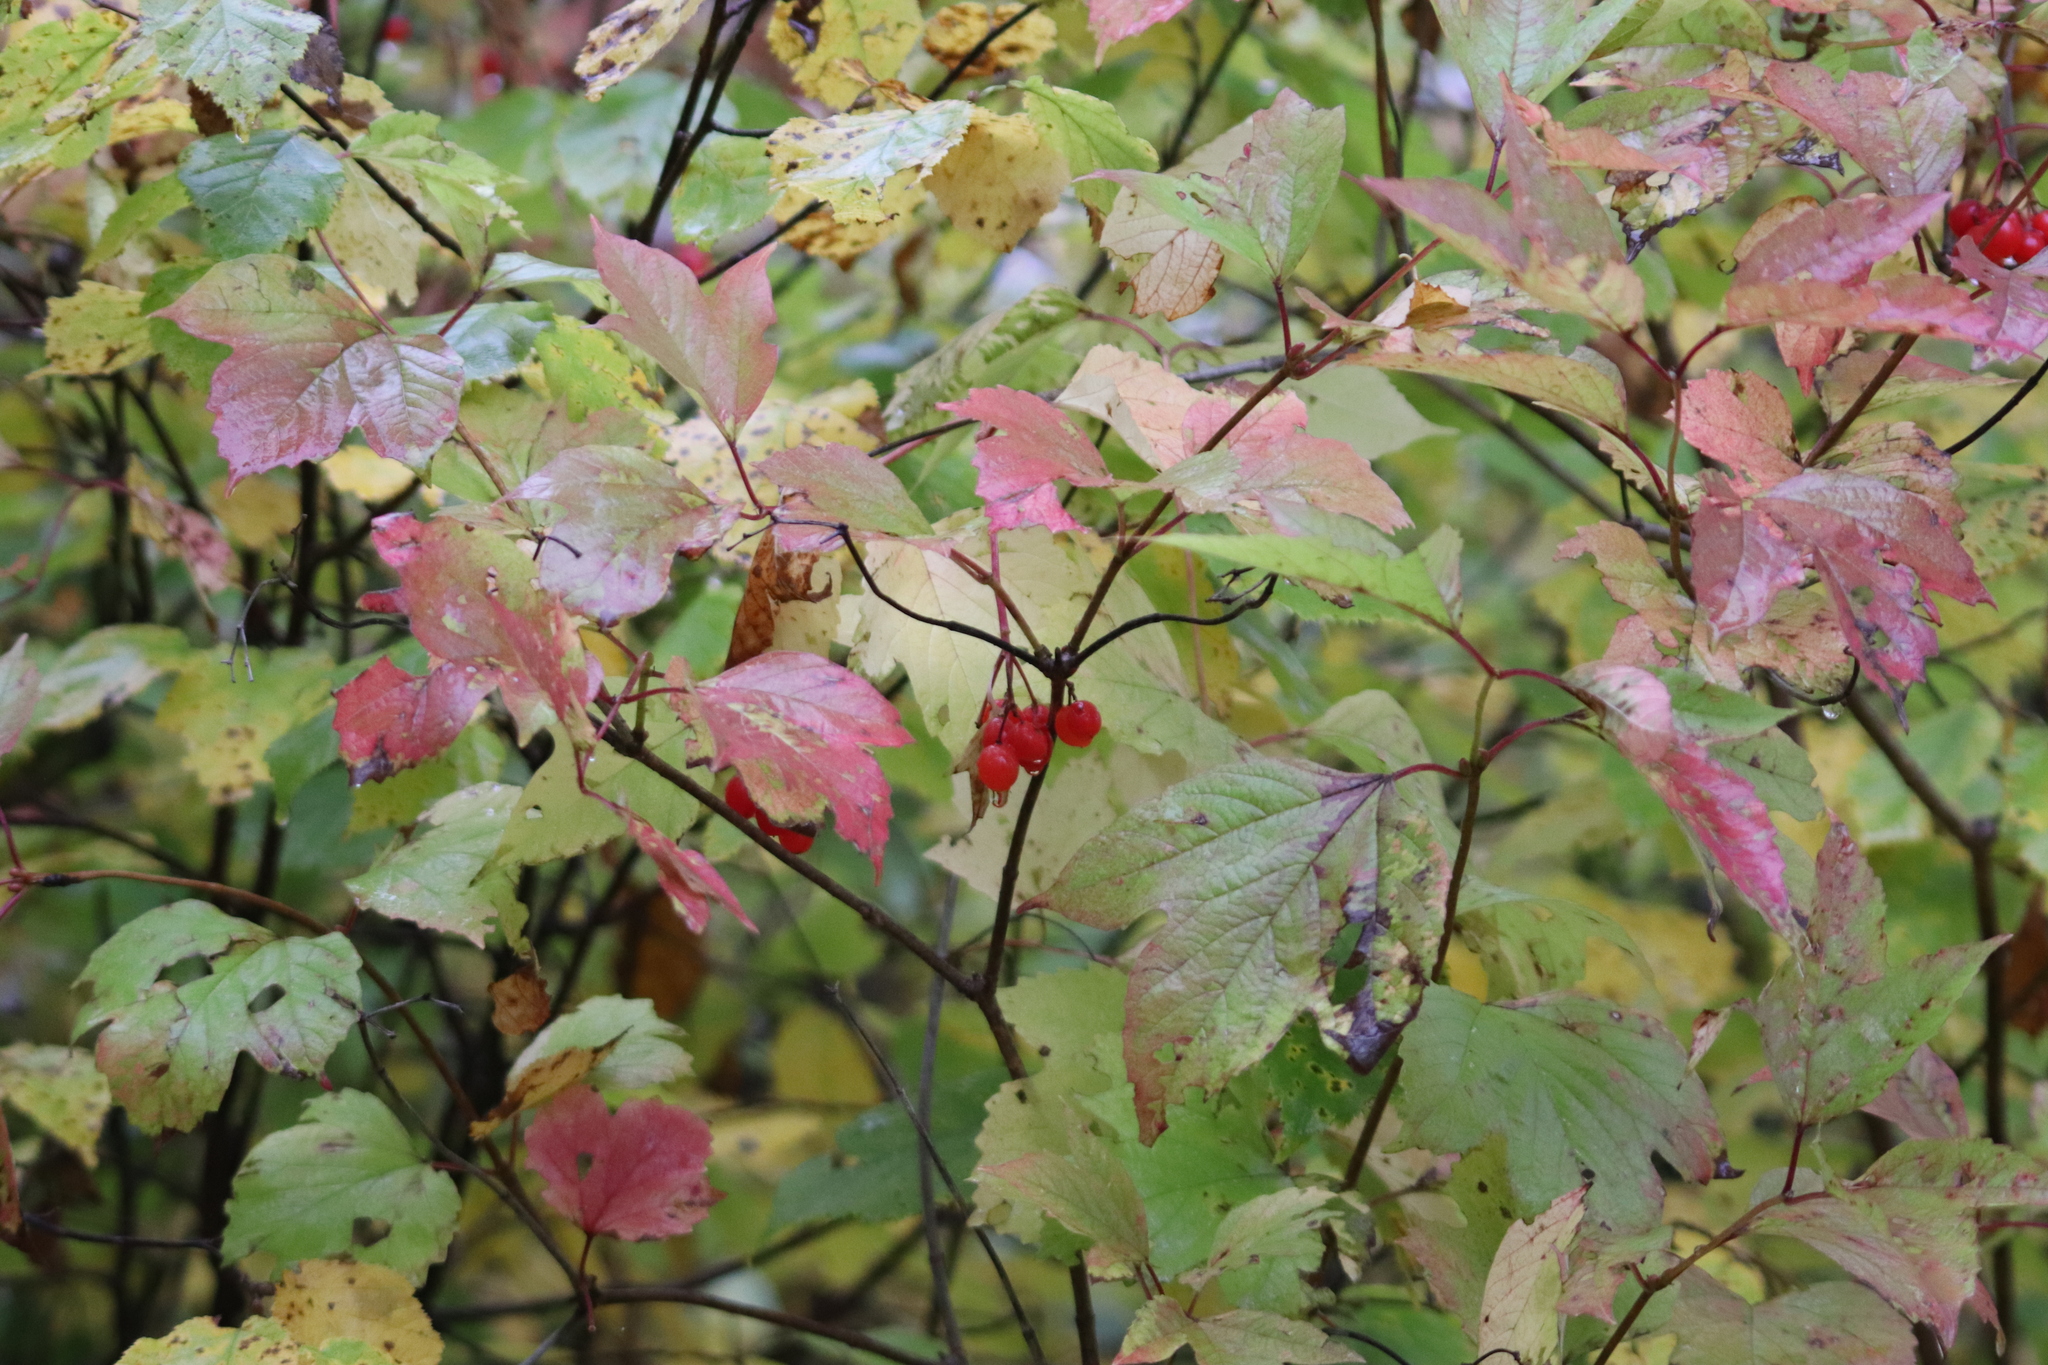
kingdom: Plantae
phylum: Tracheophyta
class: Magnoliopsida
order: Dipsacales
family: Viburnaceae
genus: Viburnum
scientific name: Viburnum opulus
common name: Guelder-rose
